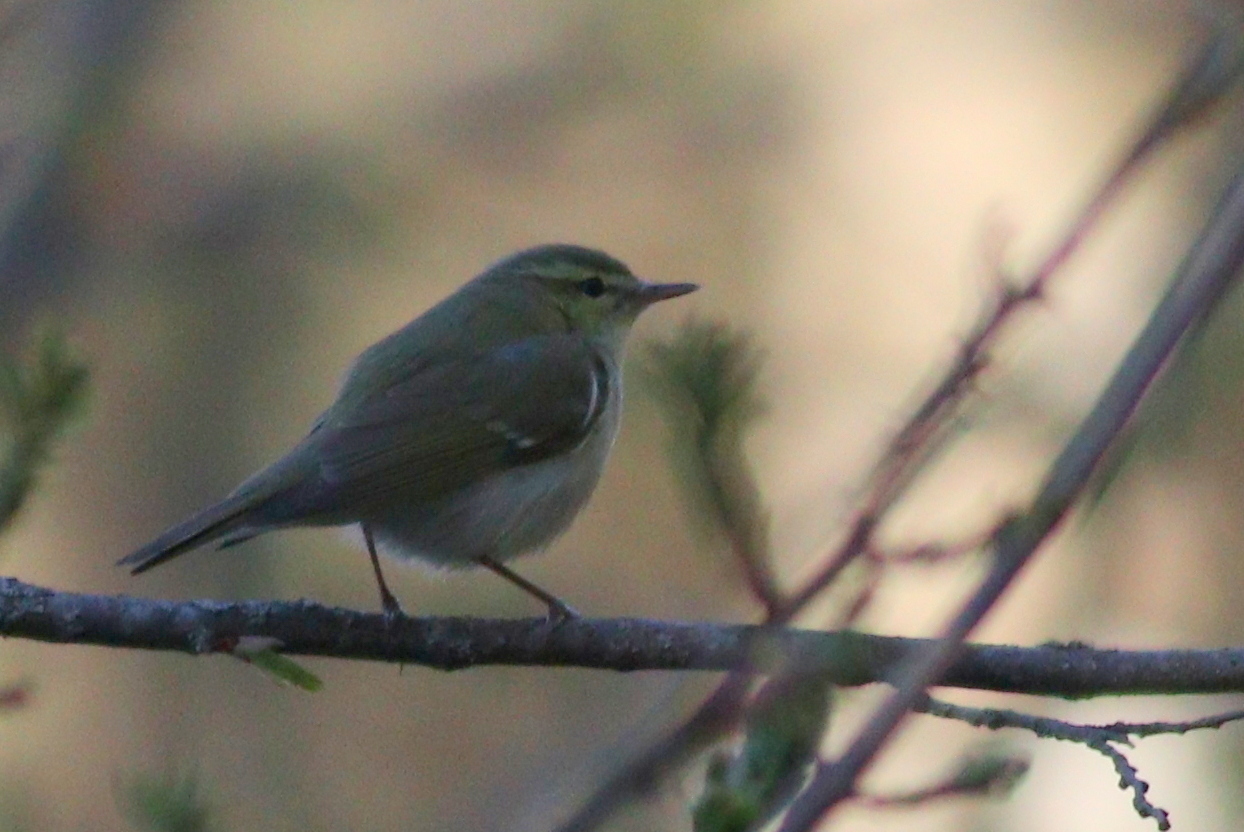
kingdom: Animalia
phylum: Chordata
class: Aves
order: Passeriformes
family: Phylloscopidae
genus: Phylloscopus
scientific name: Phylloscopus nitidus
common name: Green warbler
